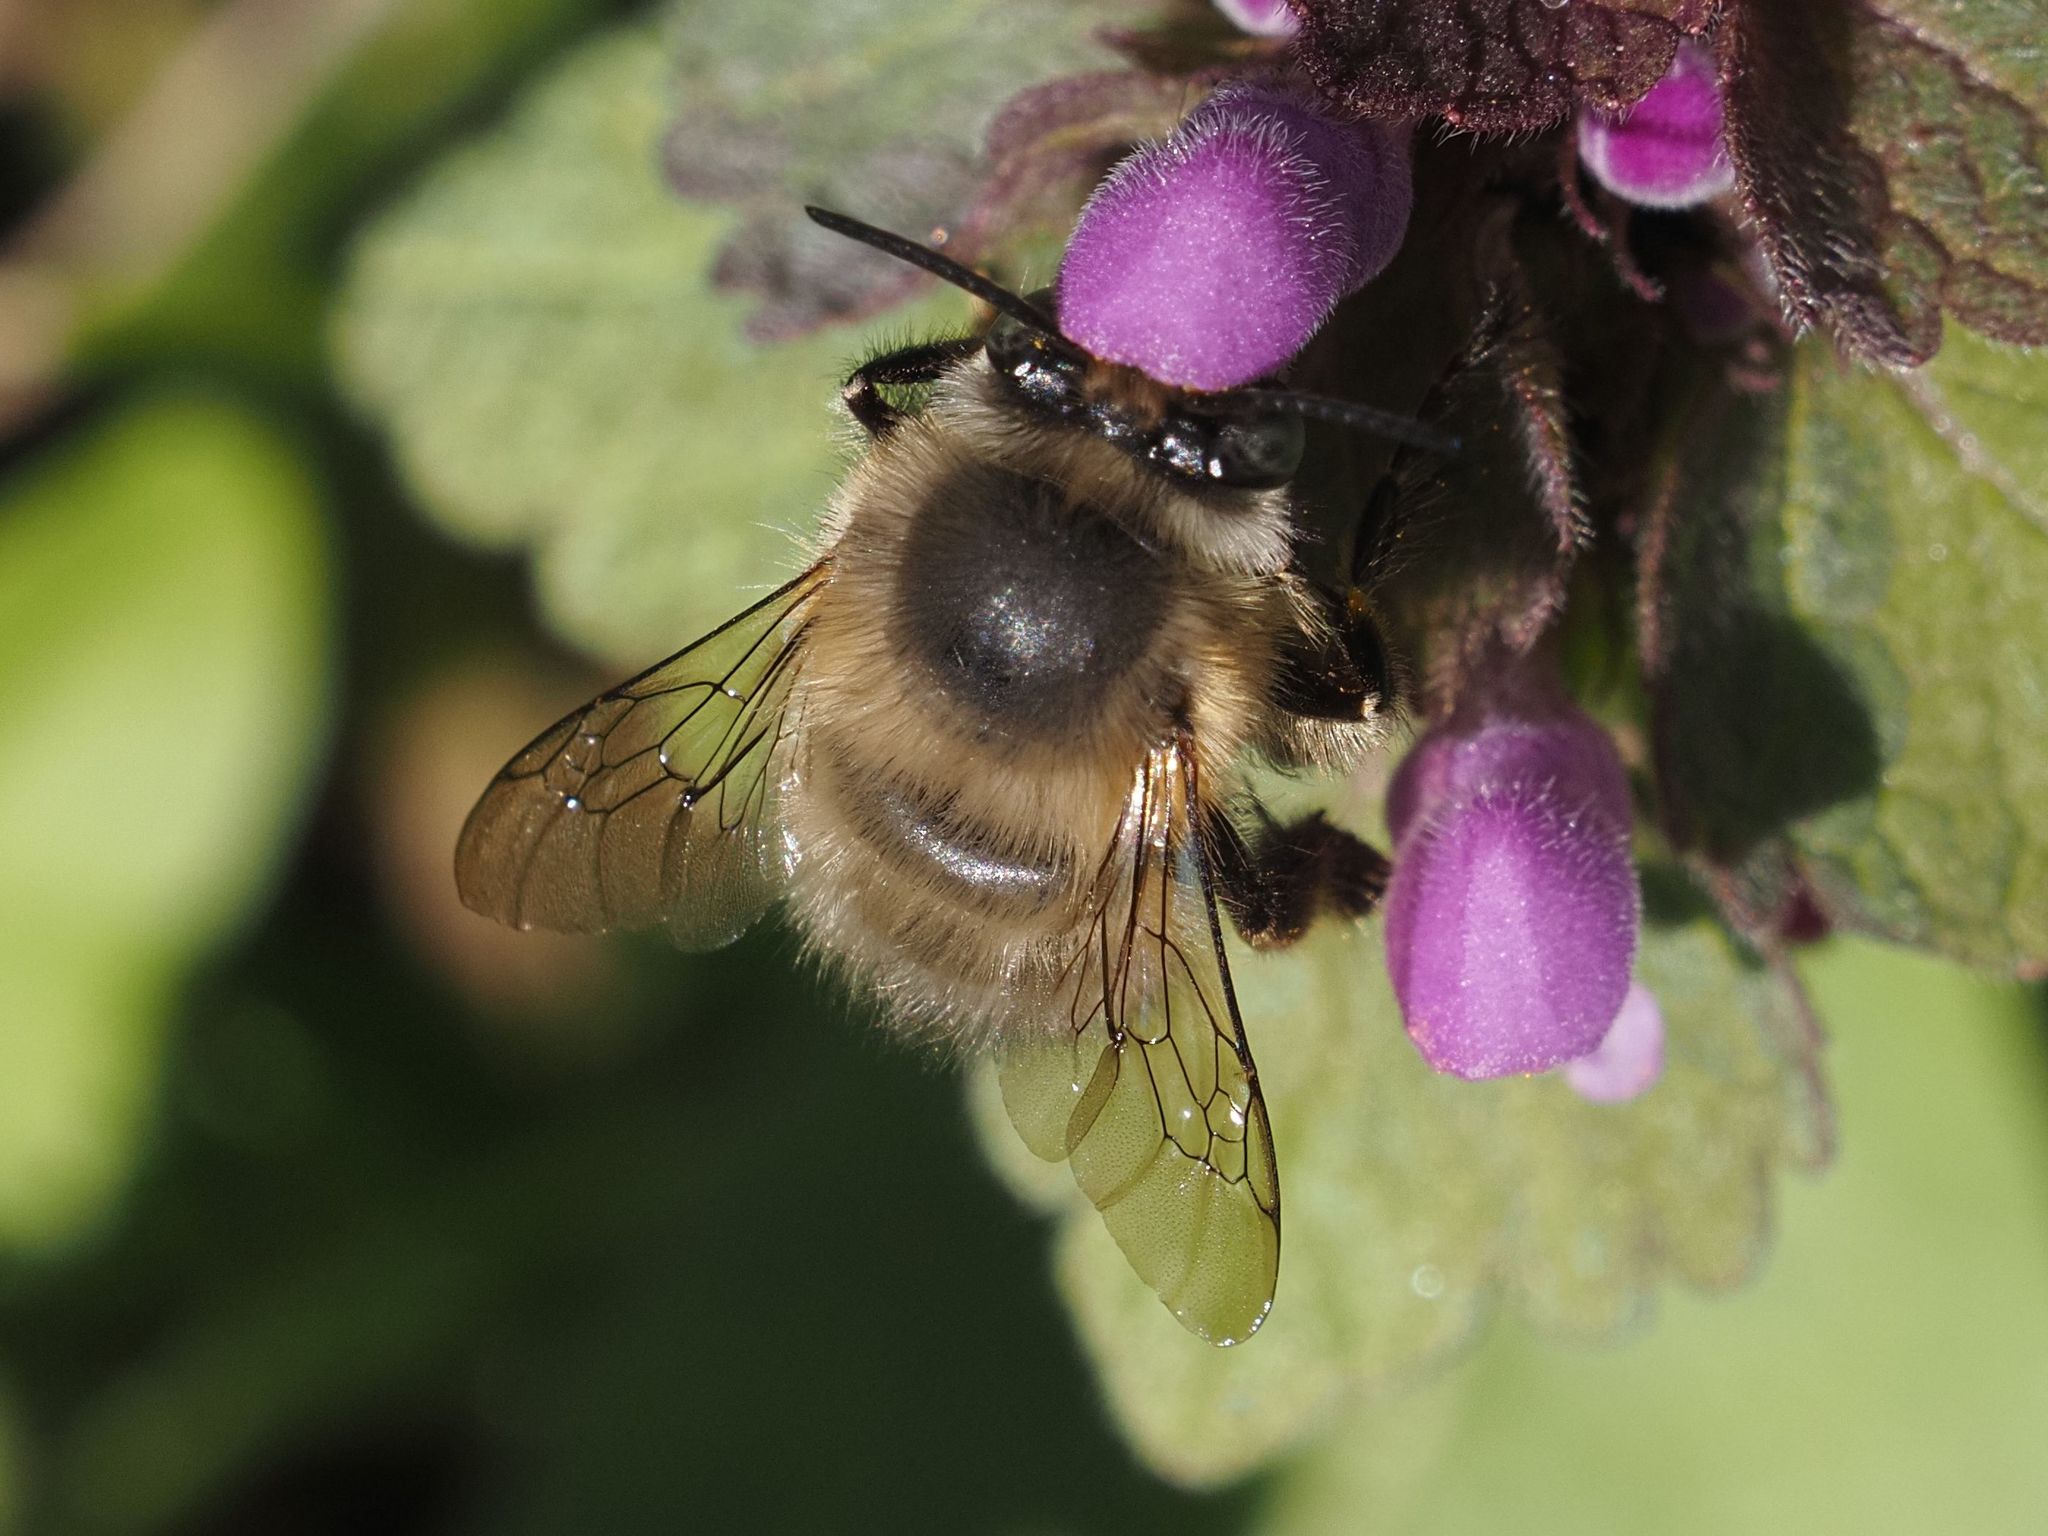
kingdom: Animalia
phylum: Arthropoda
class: Insecta
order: Hymenoptera
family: Apidae
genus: Anthophora
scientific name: Anthophora plumipes
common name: Hairy-footed flower bee
